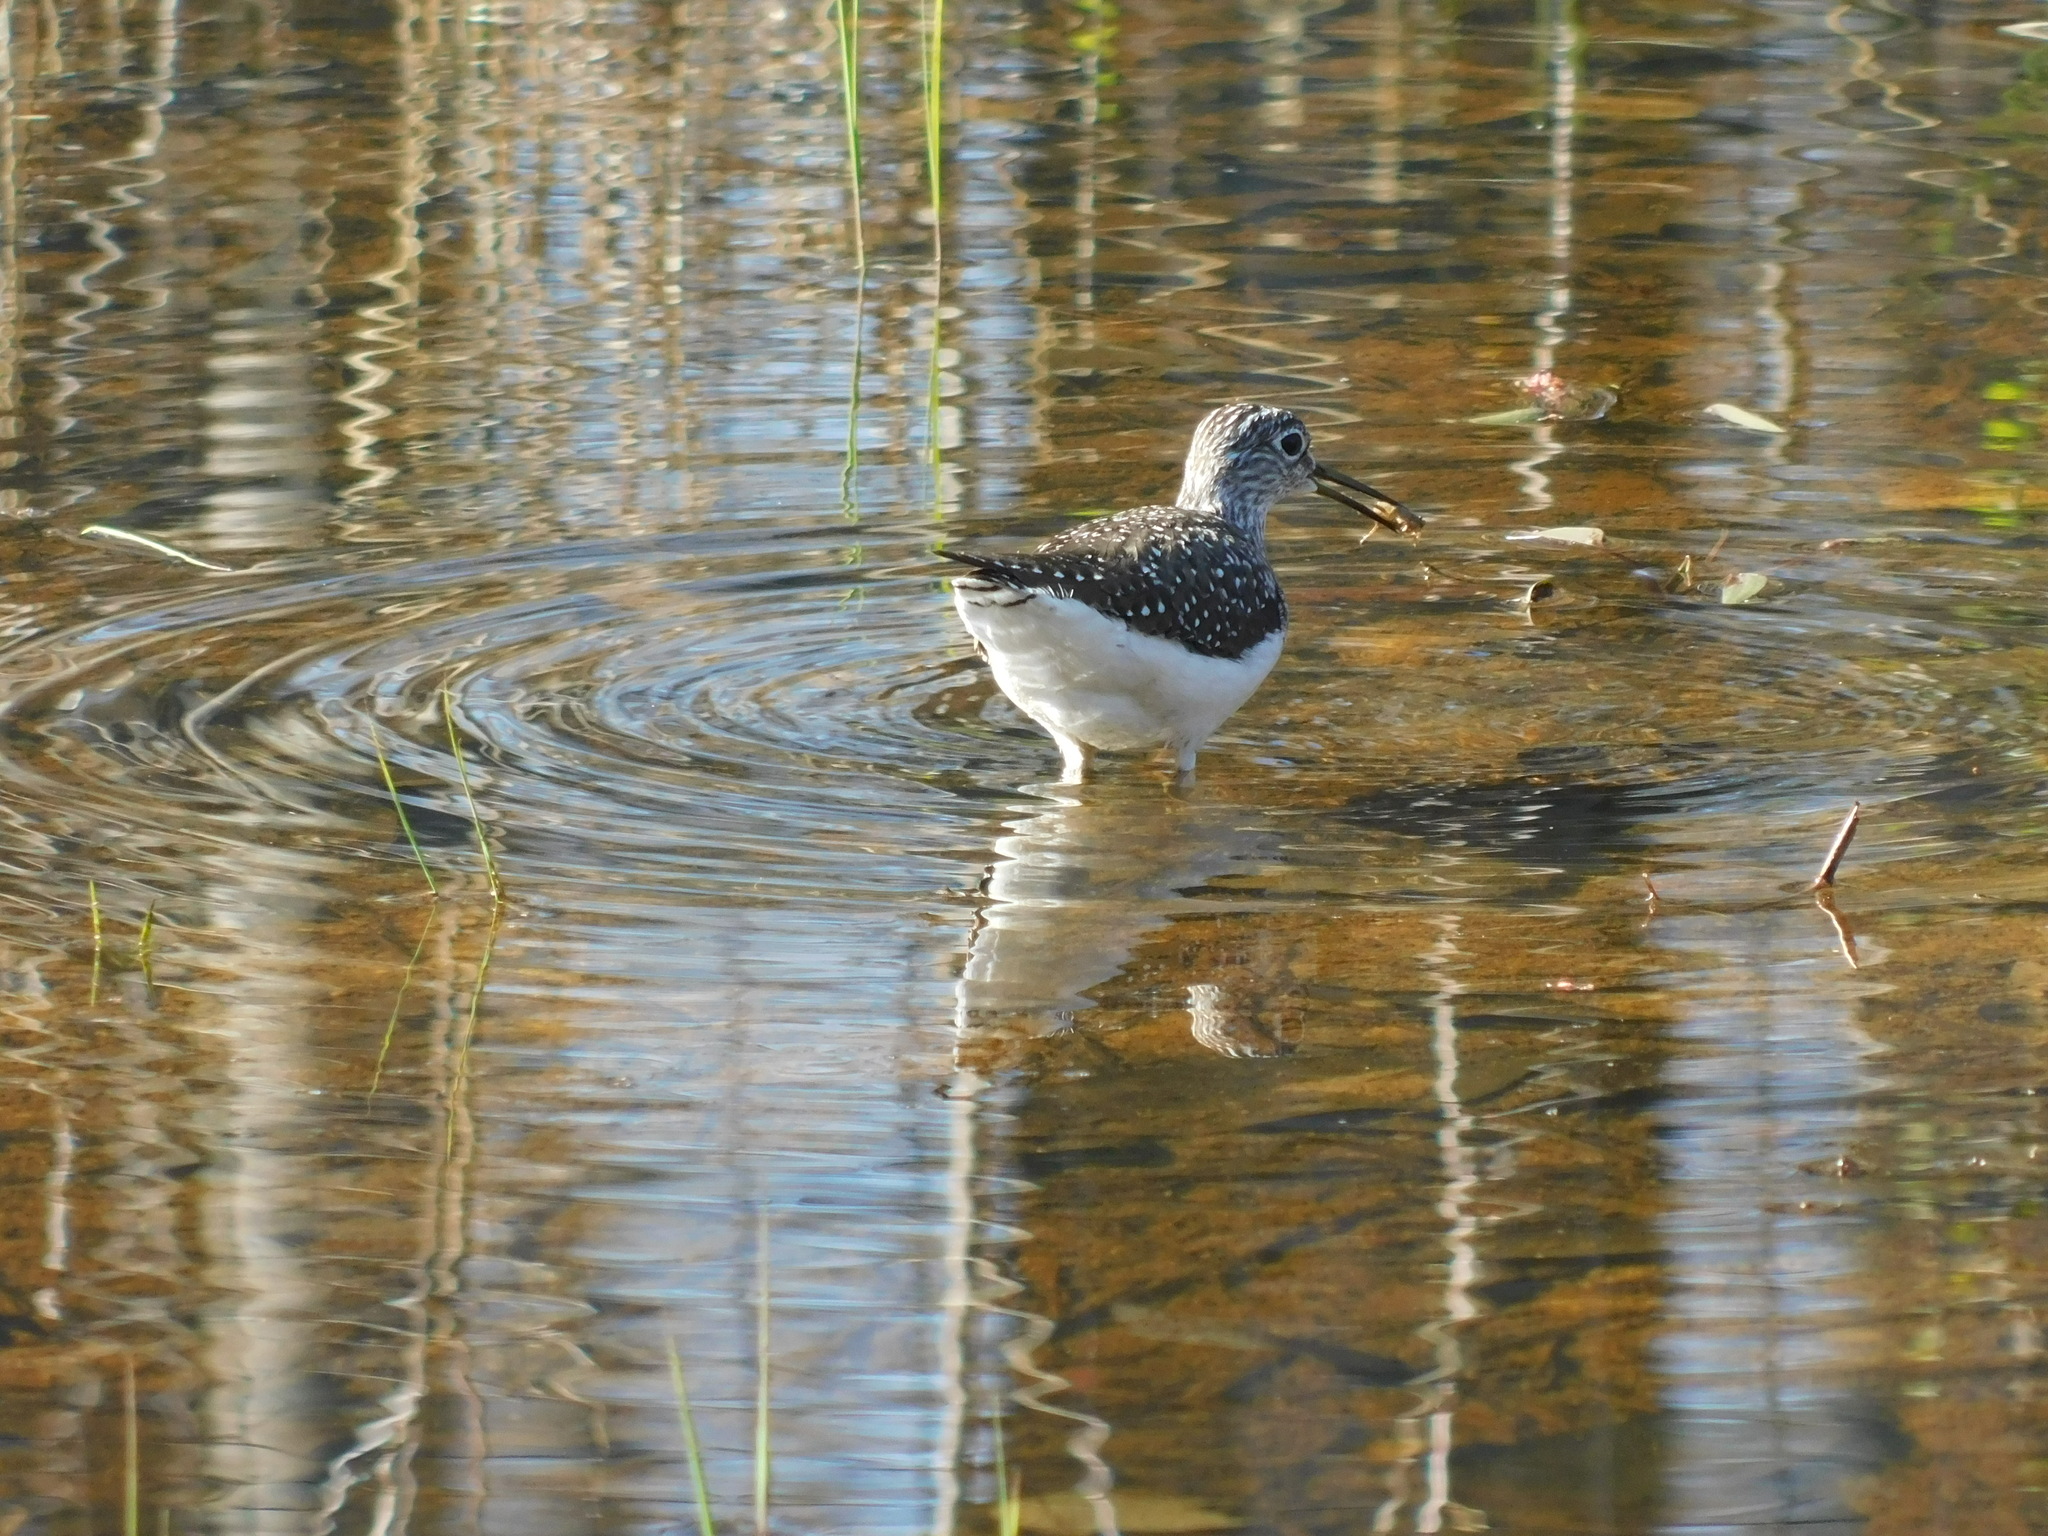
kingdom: Animalia
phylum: Chordata
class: Aves
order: Charadriiformes
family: Scolopacidae
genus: Tringa
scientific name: Tringa solitaria
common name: Solitary sandpiper
